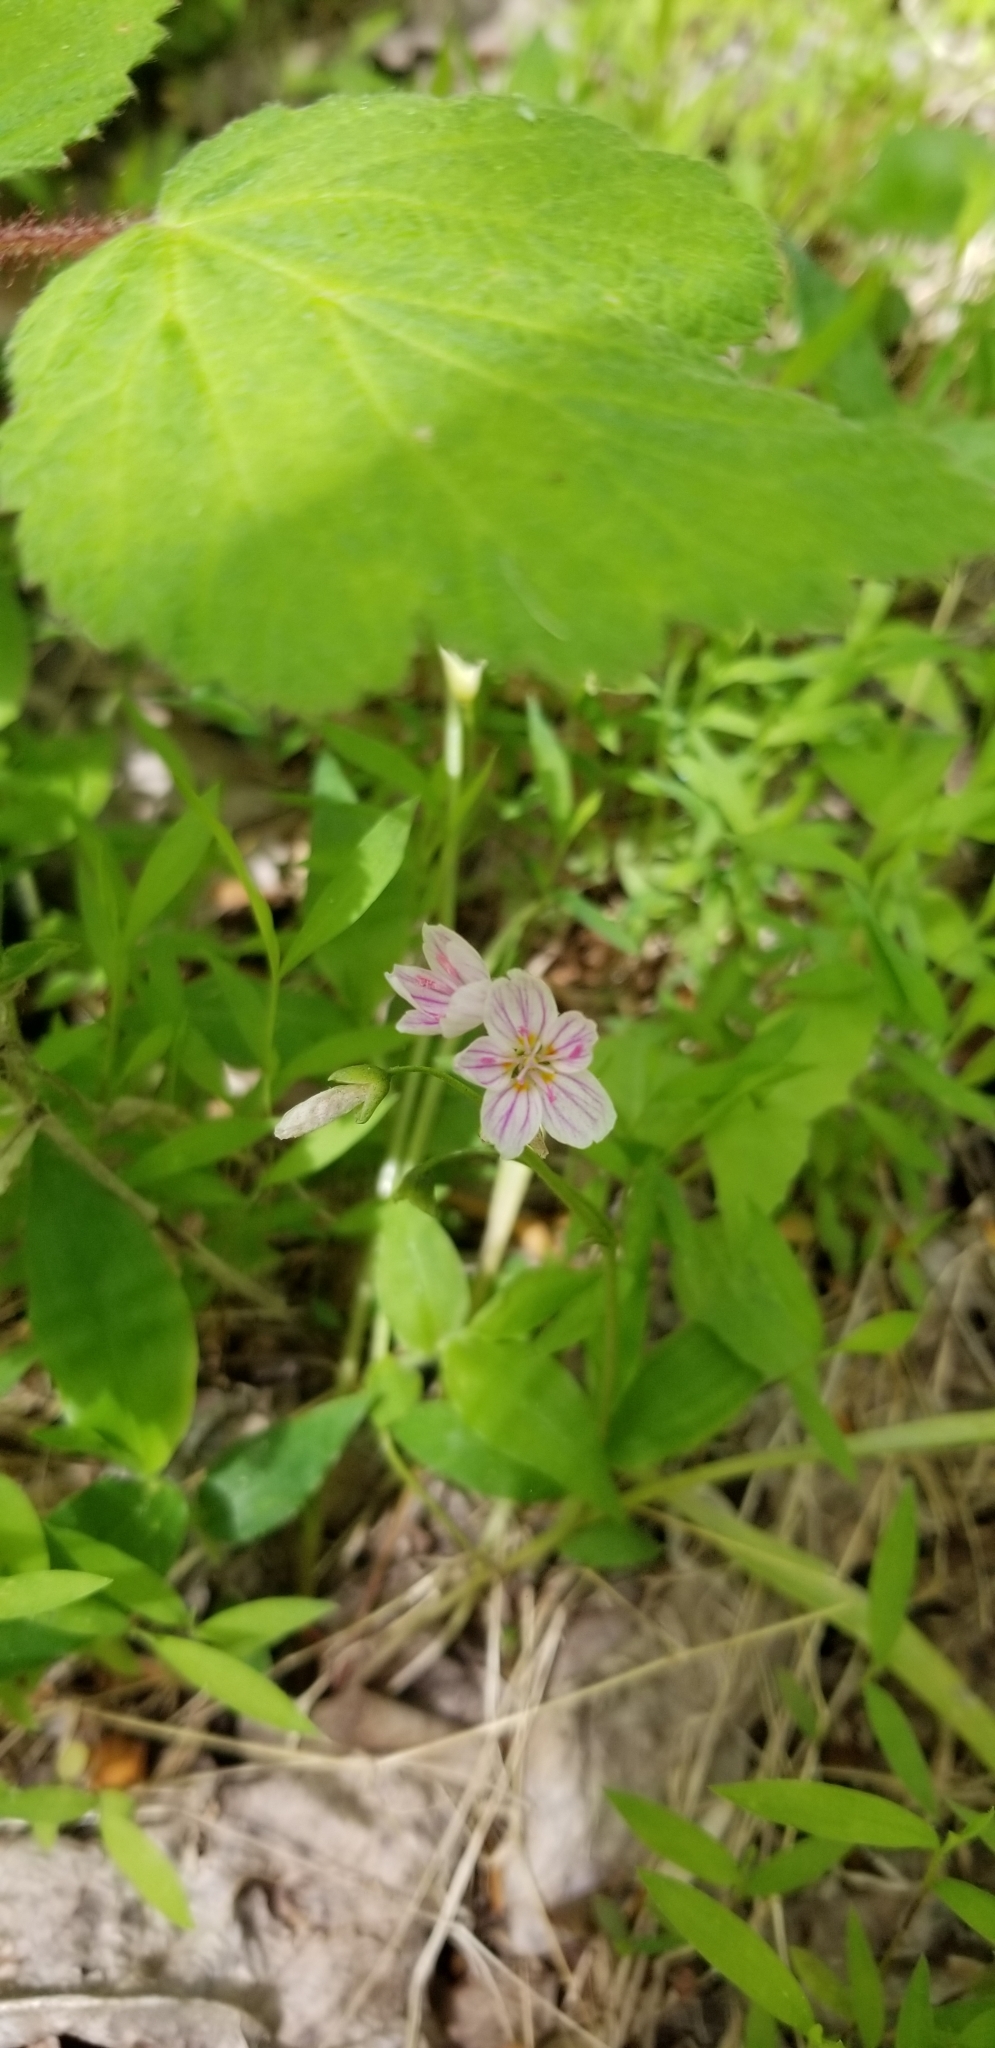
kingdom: Plantae
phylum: Tracheophyta
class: Magnoliopsida
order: Caryophyllales
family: Montiaceae
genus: Claytonia
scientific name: Claytonia virginica
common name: Virginia springbeauty
